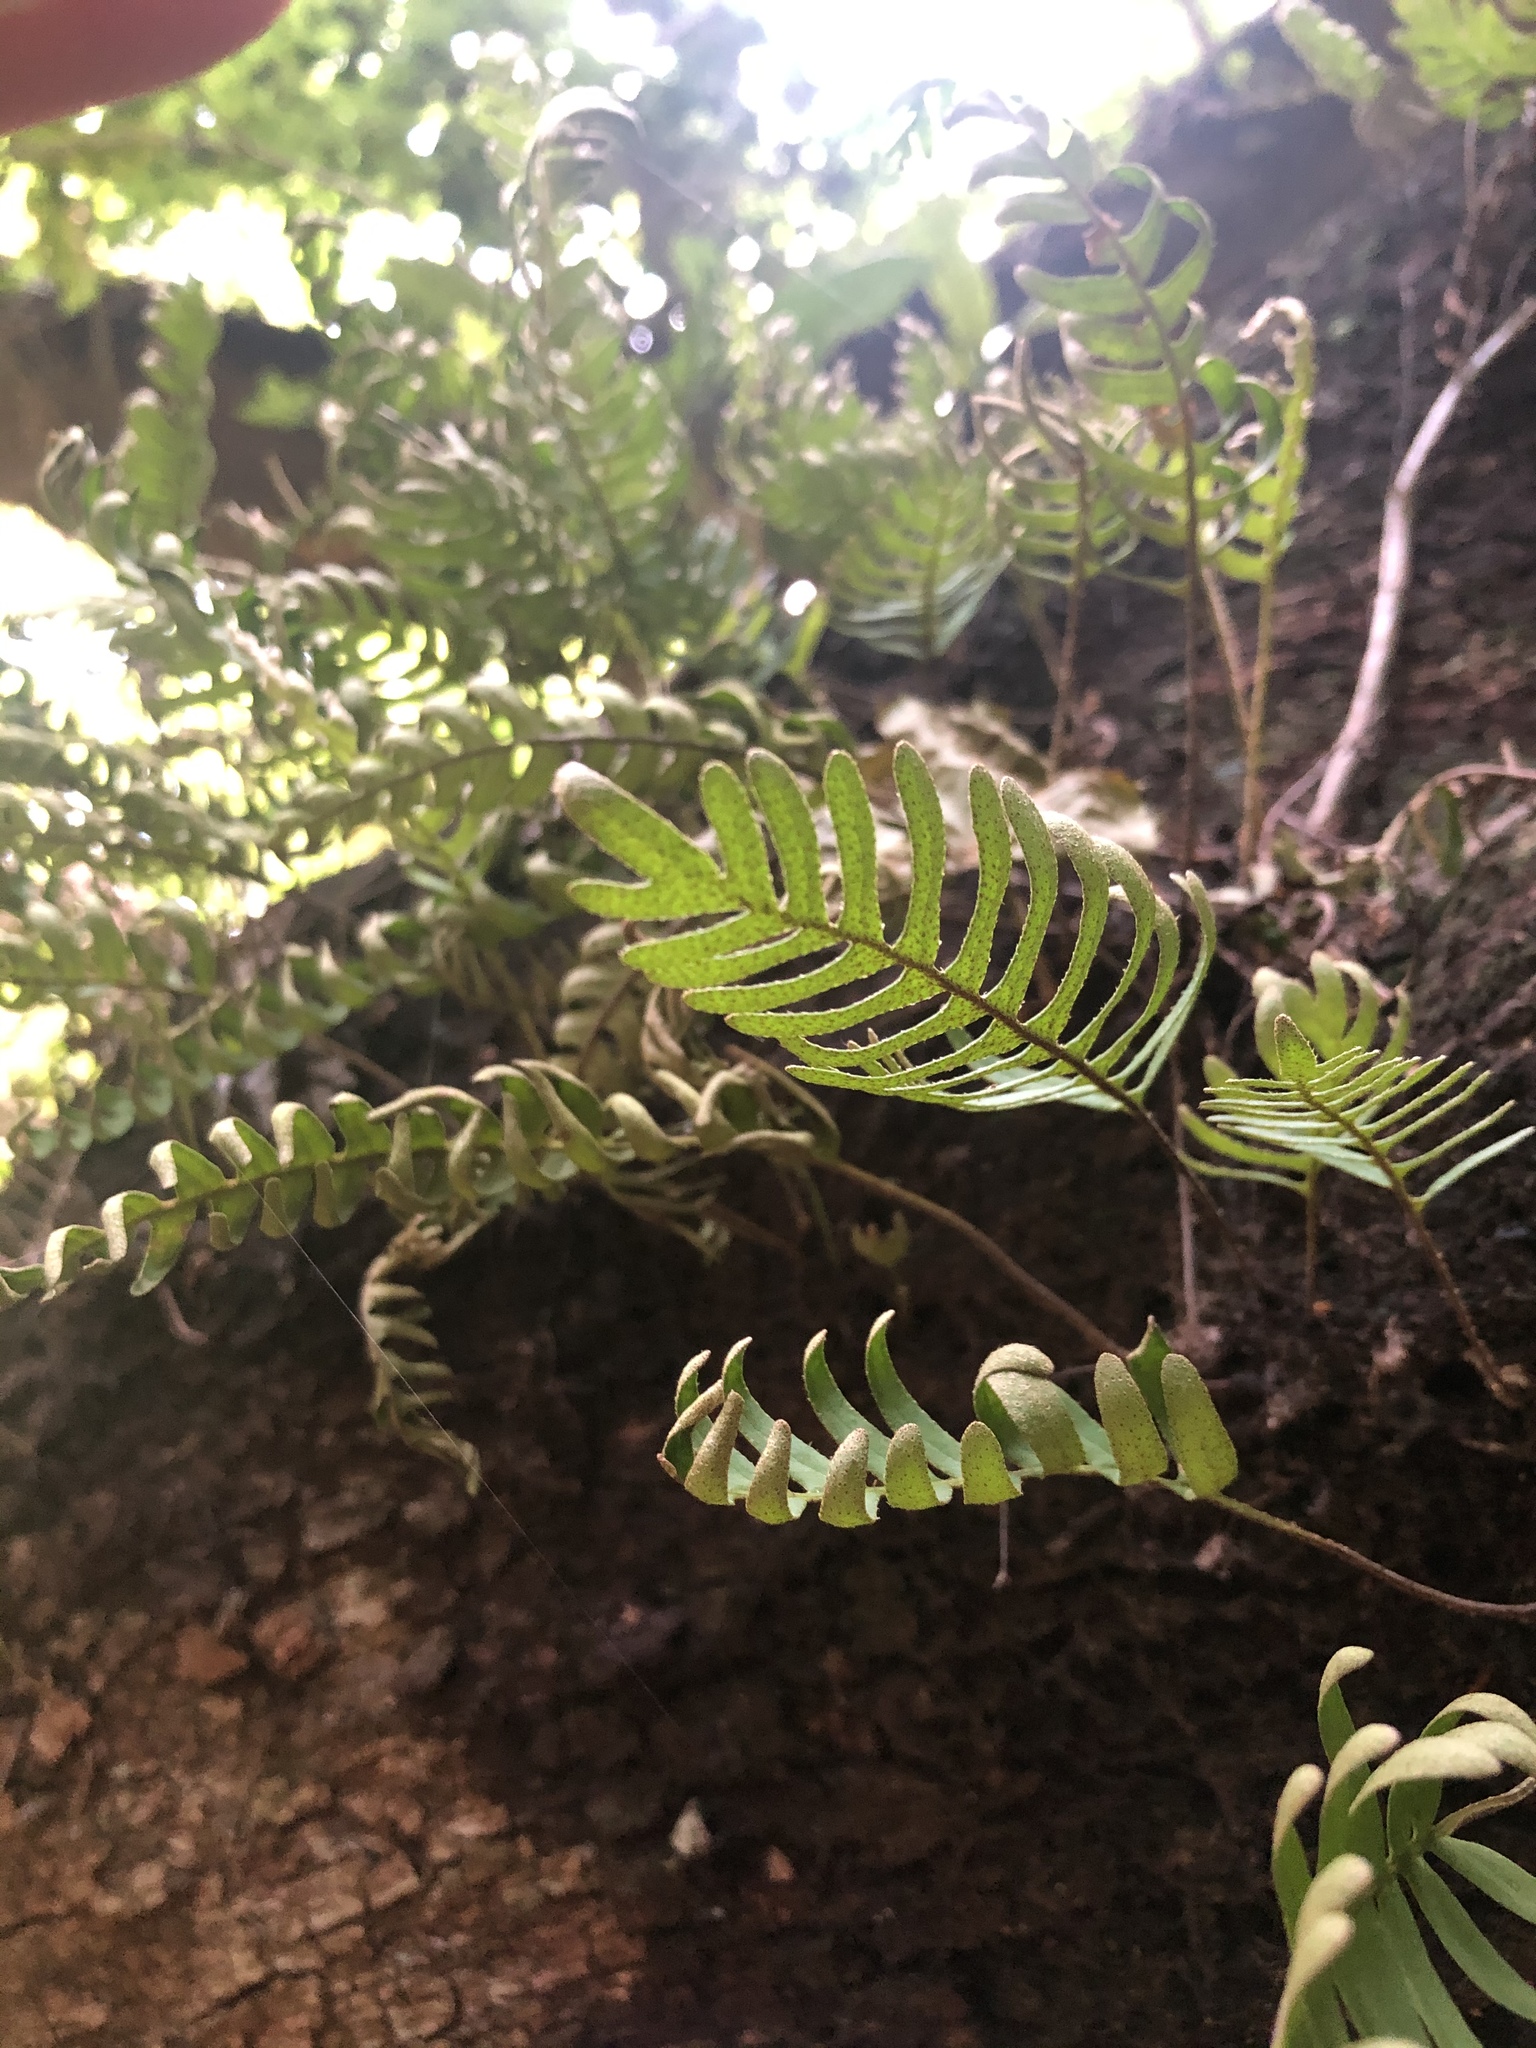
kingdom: Plantae
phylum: Tracheophyta
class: Polypodiopsida
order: Polypodiales
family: Polypodiaceae
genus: Pleopeltis
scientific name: Pleopeltis michauxiana
